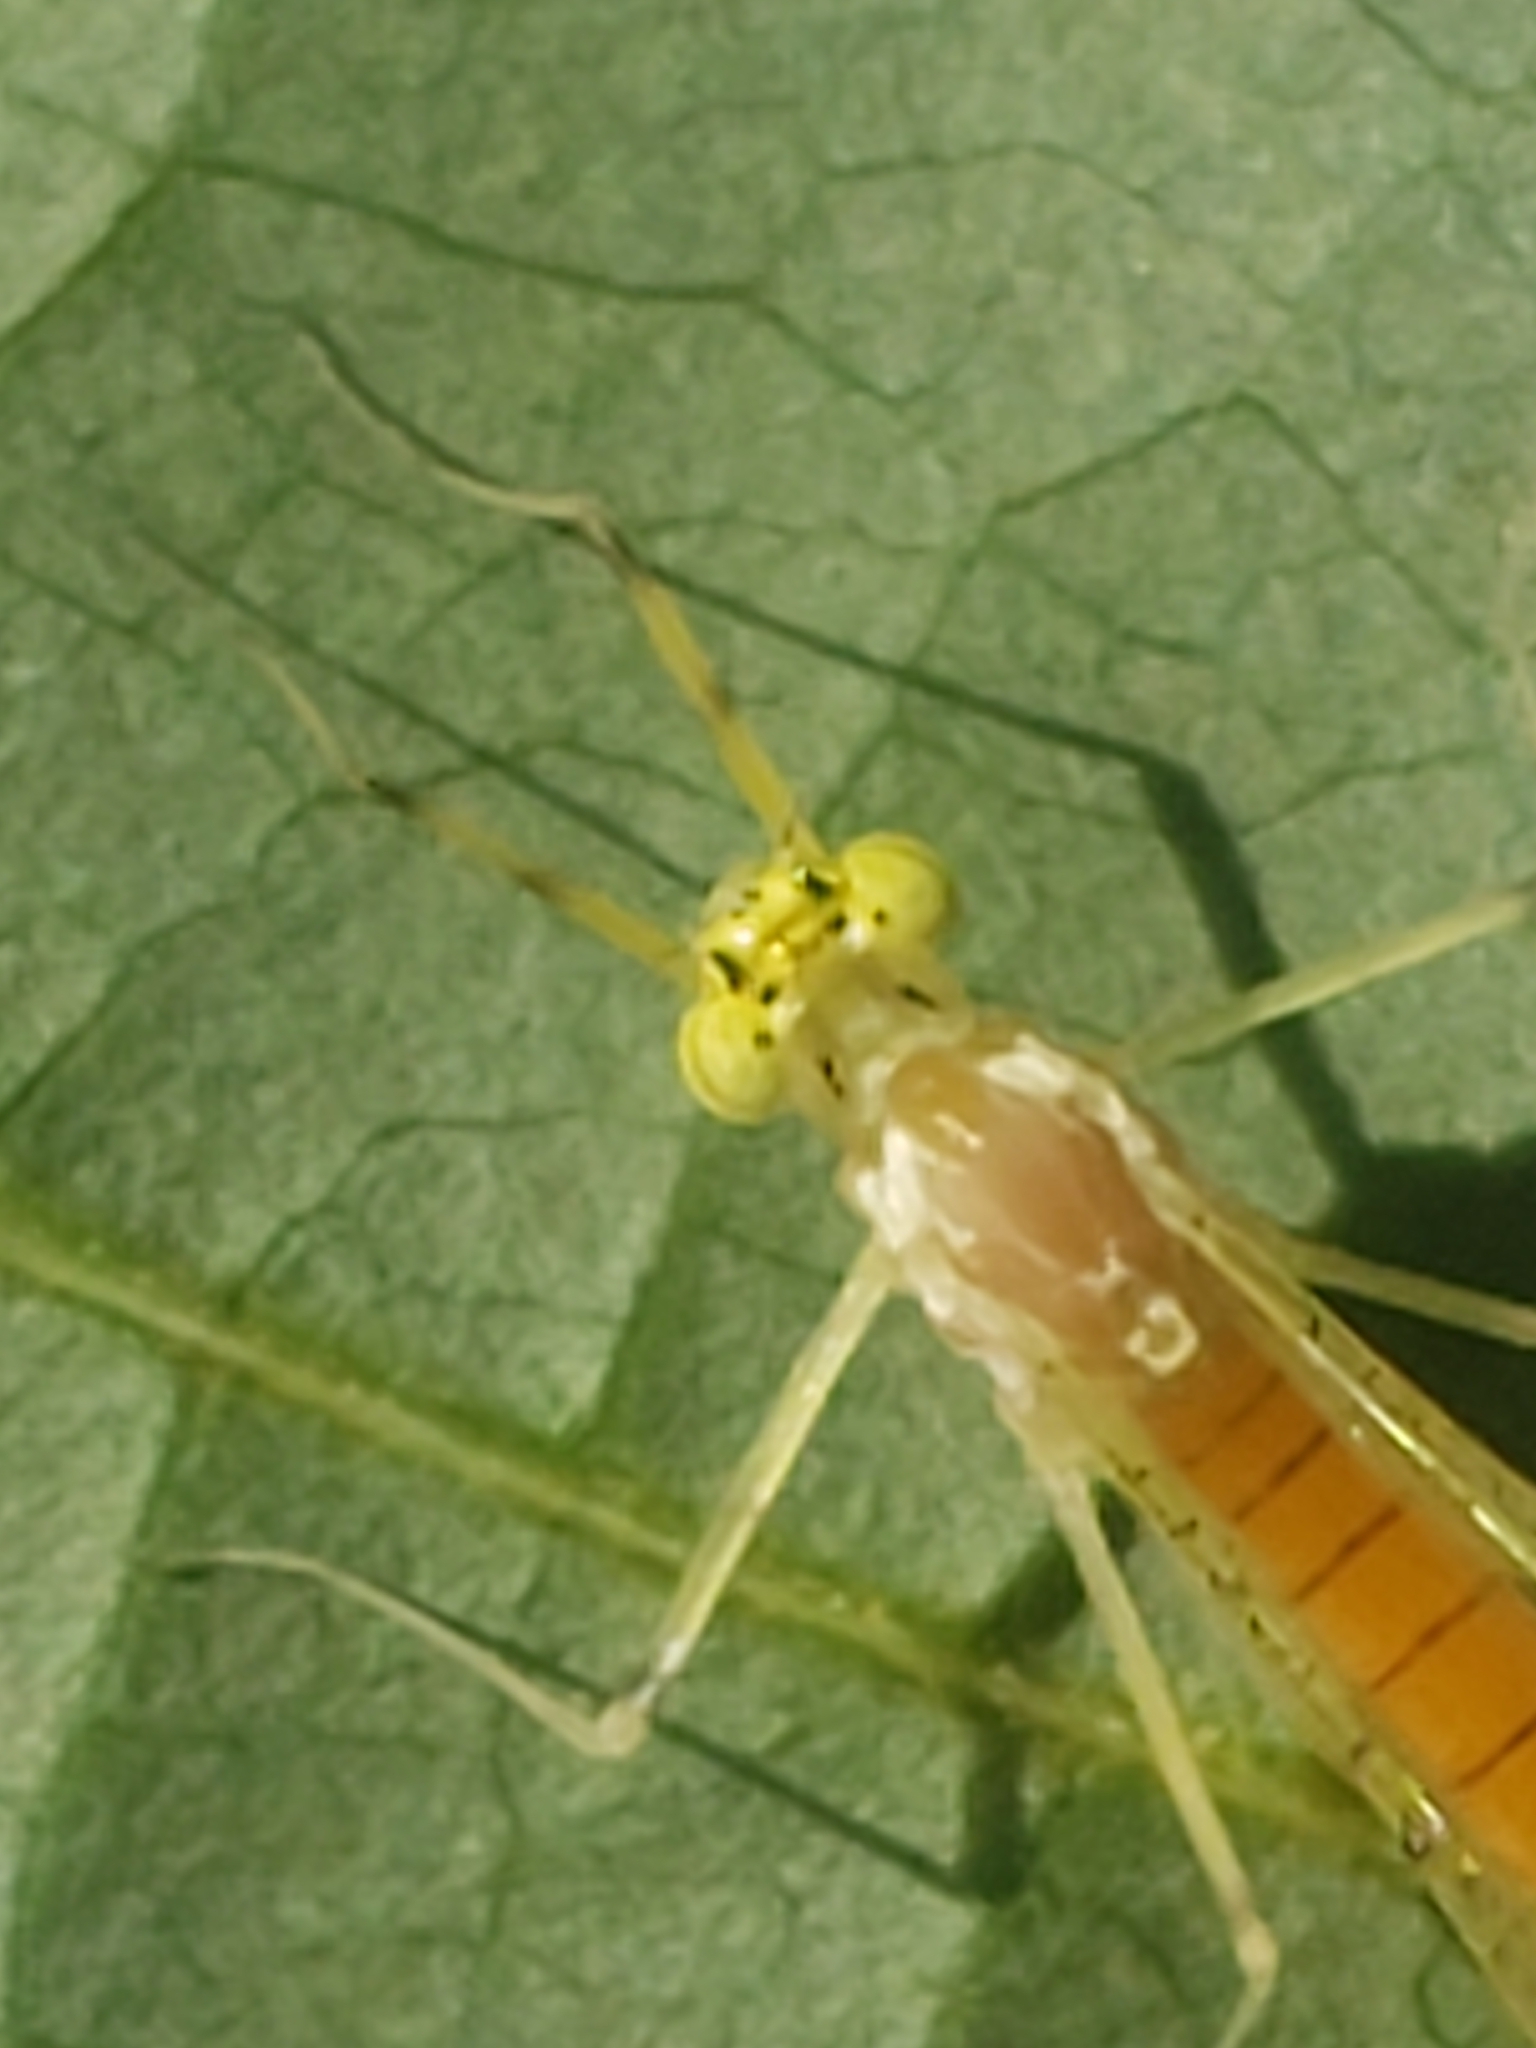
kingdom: Animalia
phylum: Arthropoda
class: Insecta
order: Ephemeroptera
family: Heptageniidae
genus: Stenacron
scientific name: Stenacron interpunctatum
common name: Orange cahill
